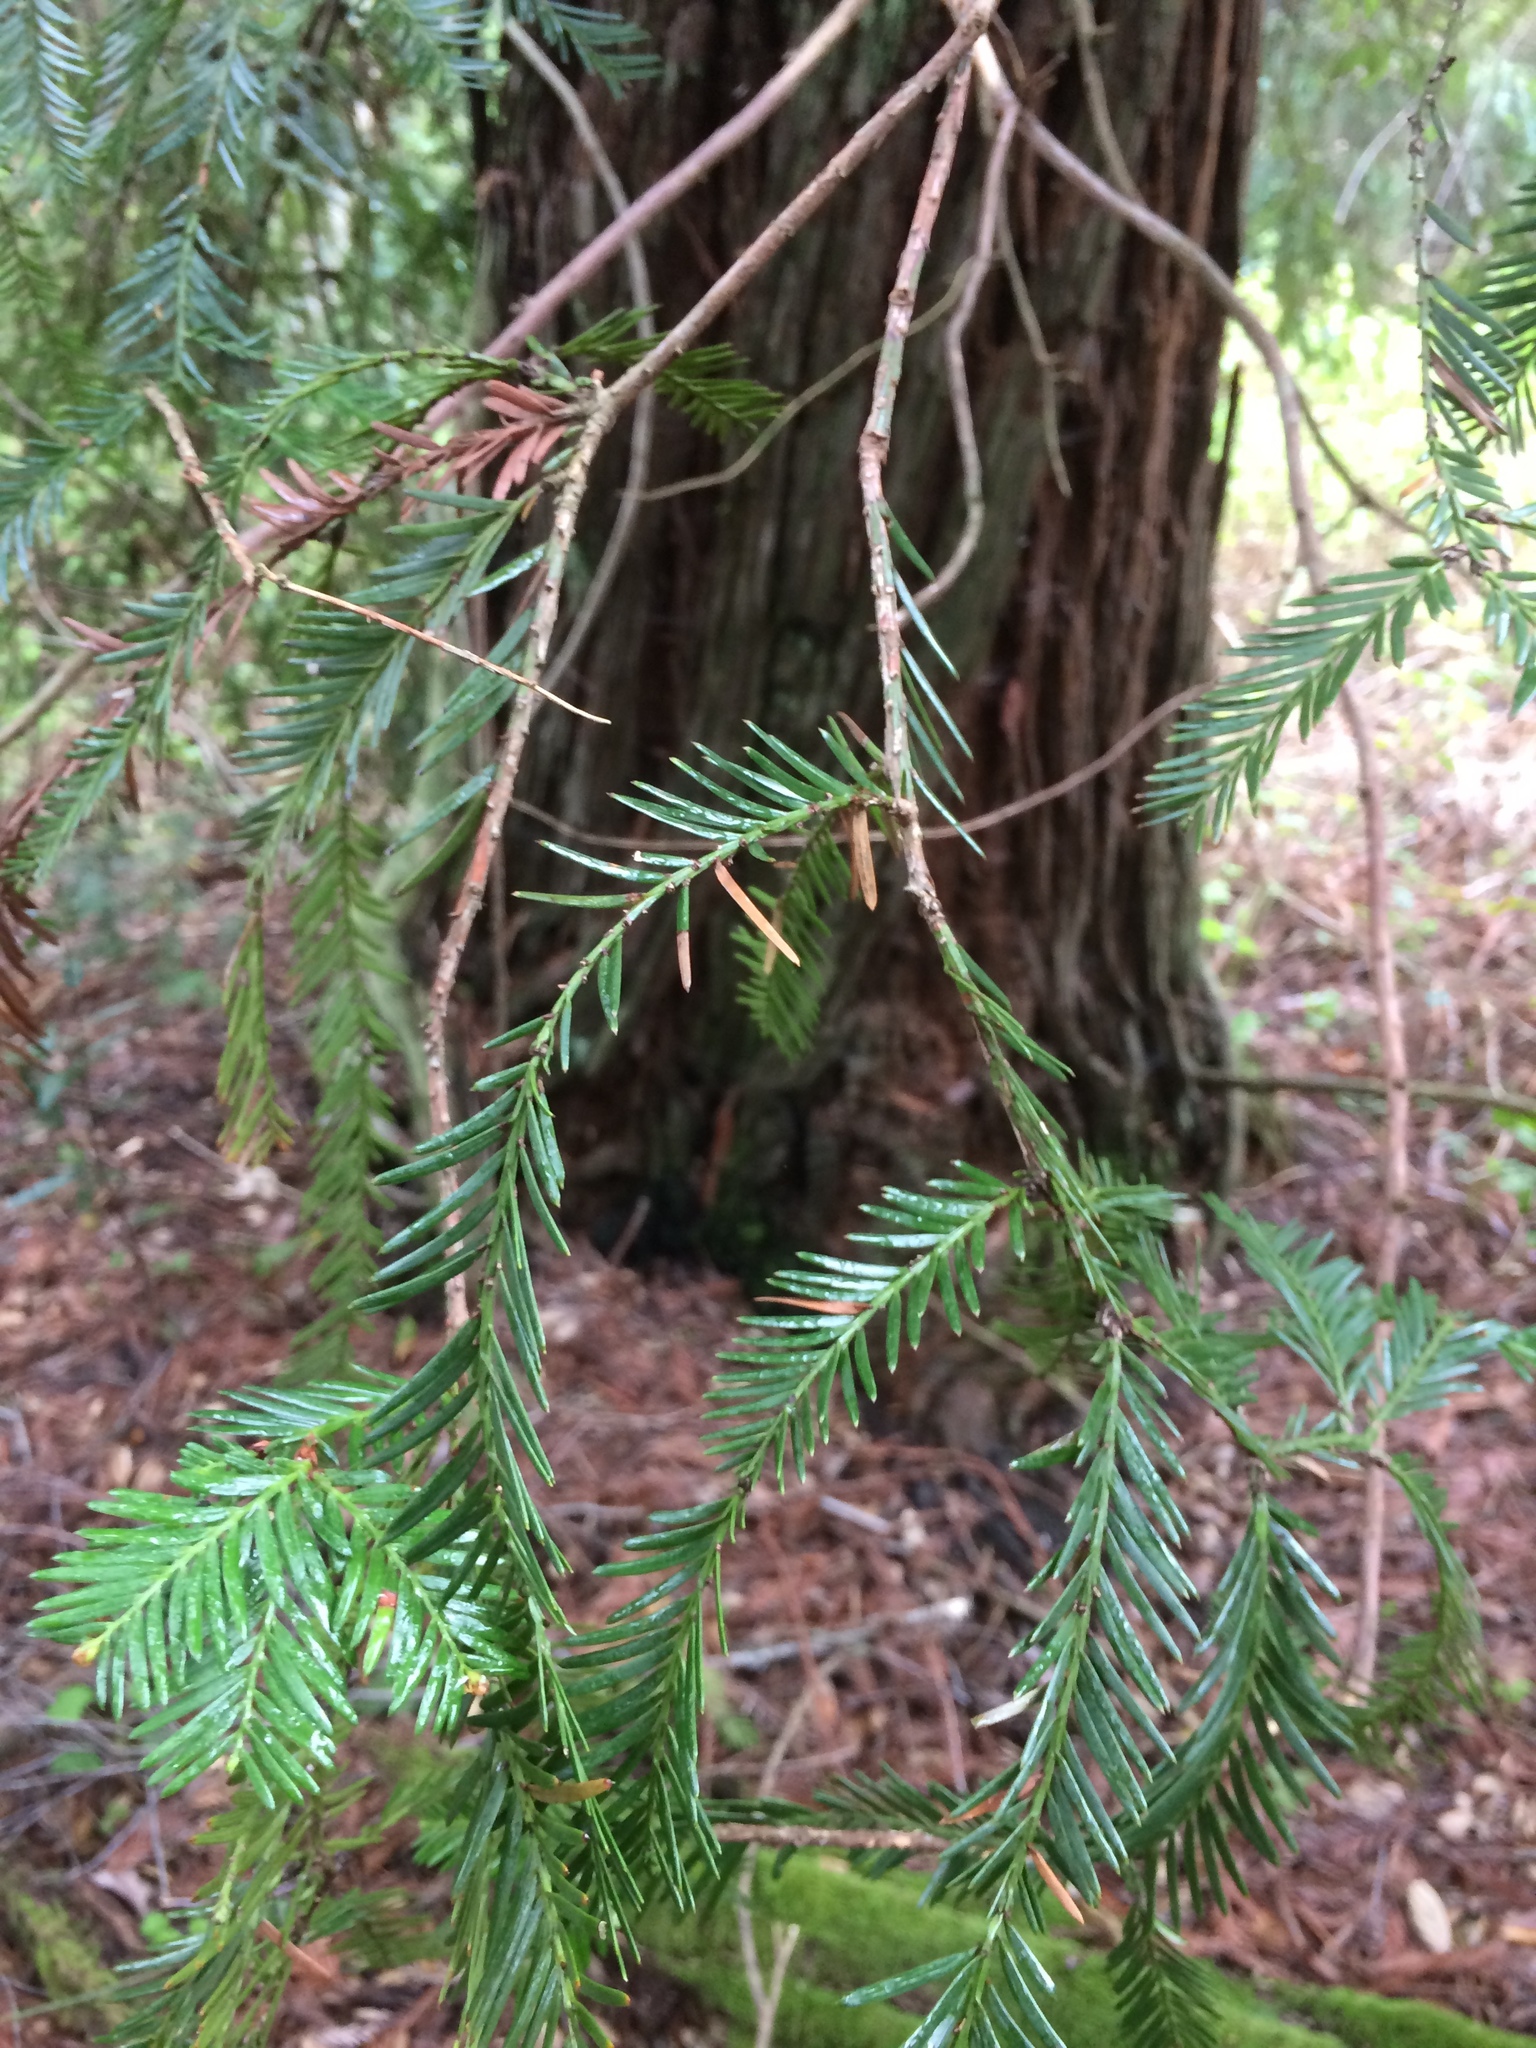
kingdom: Plantae
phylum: Tracheophyta
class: Pinopsida
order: Pinales
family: Cupressaceae
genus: Sequoia
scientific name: Sequoia sempervirens
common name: Coast redwood
